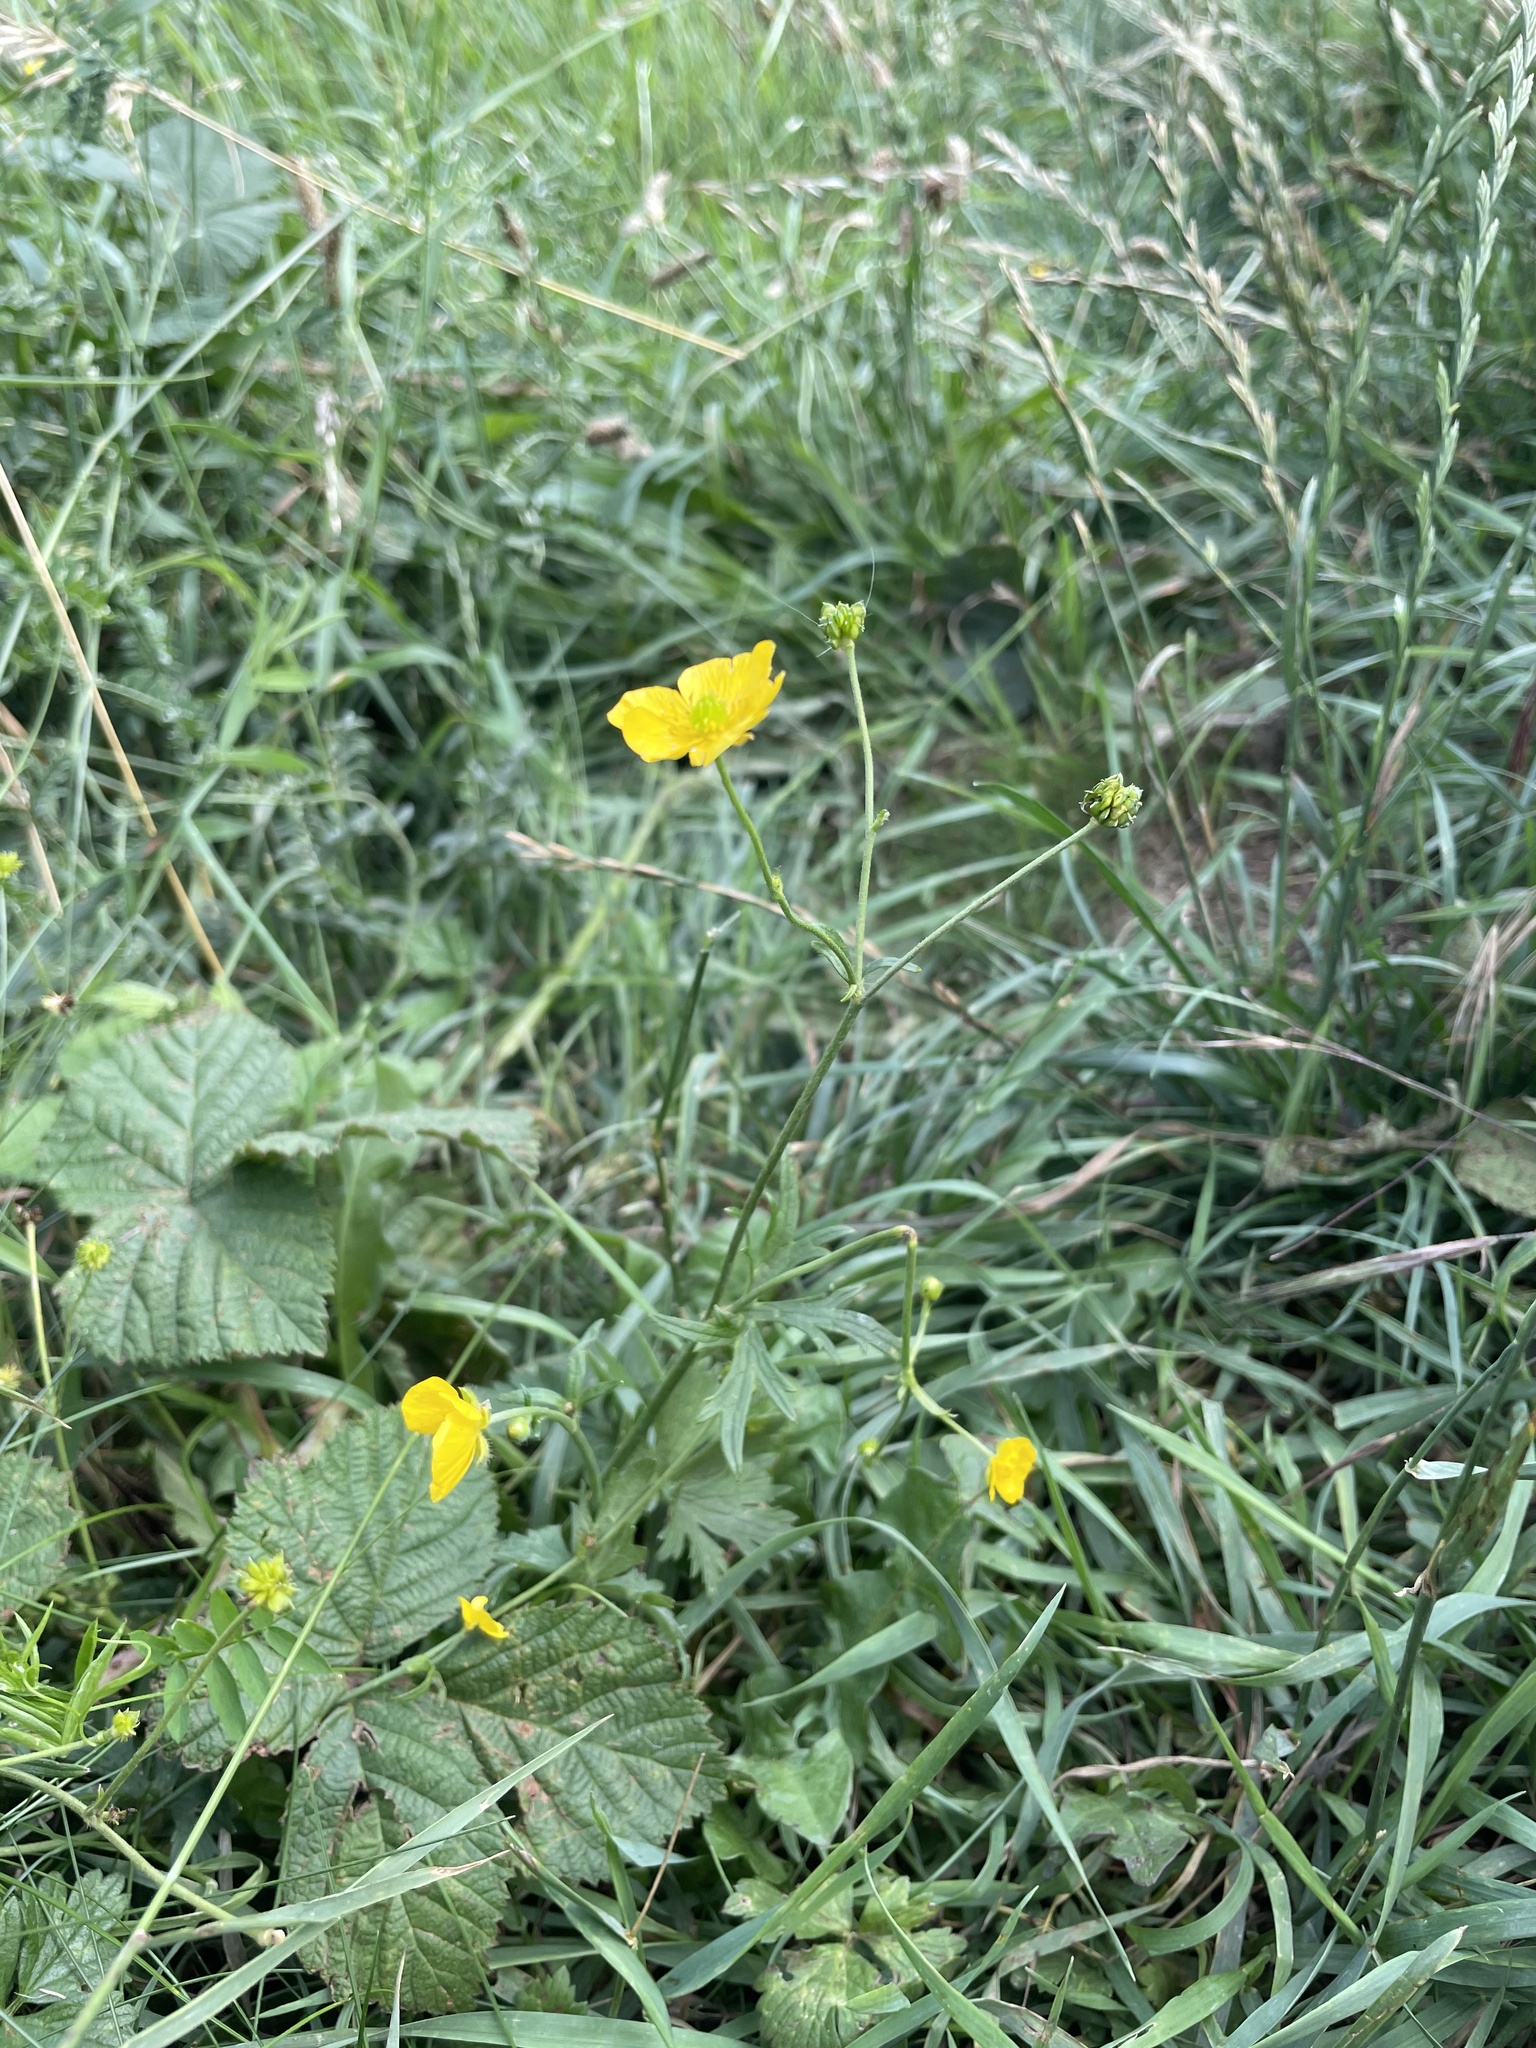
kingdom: Plantae
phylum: Tracheophyta
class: Magnoliopsida
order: Ranunculales
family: Ranunculaceae
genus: Ranunculus
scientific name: Ranunculus acris
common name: Meadow buttercup
